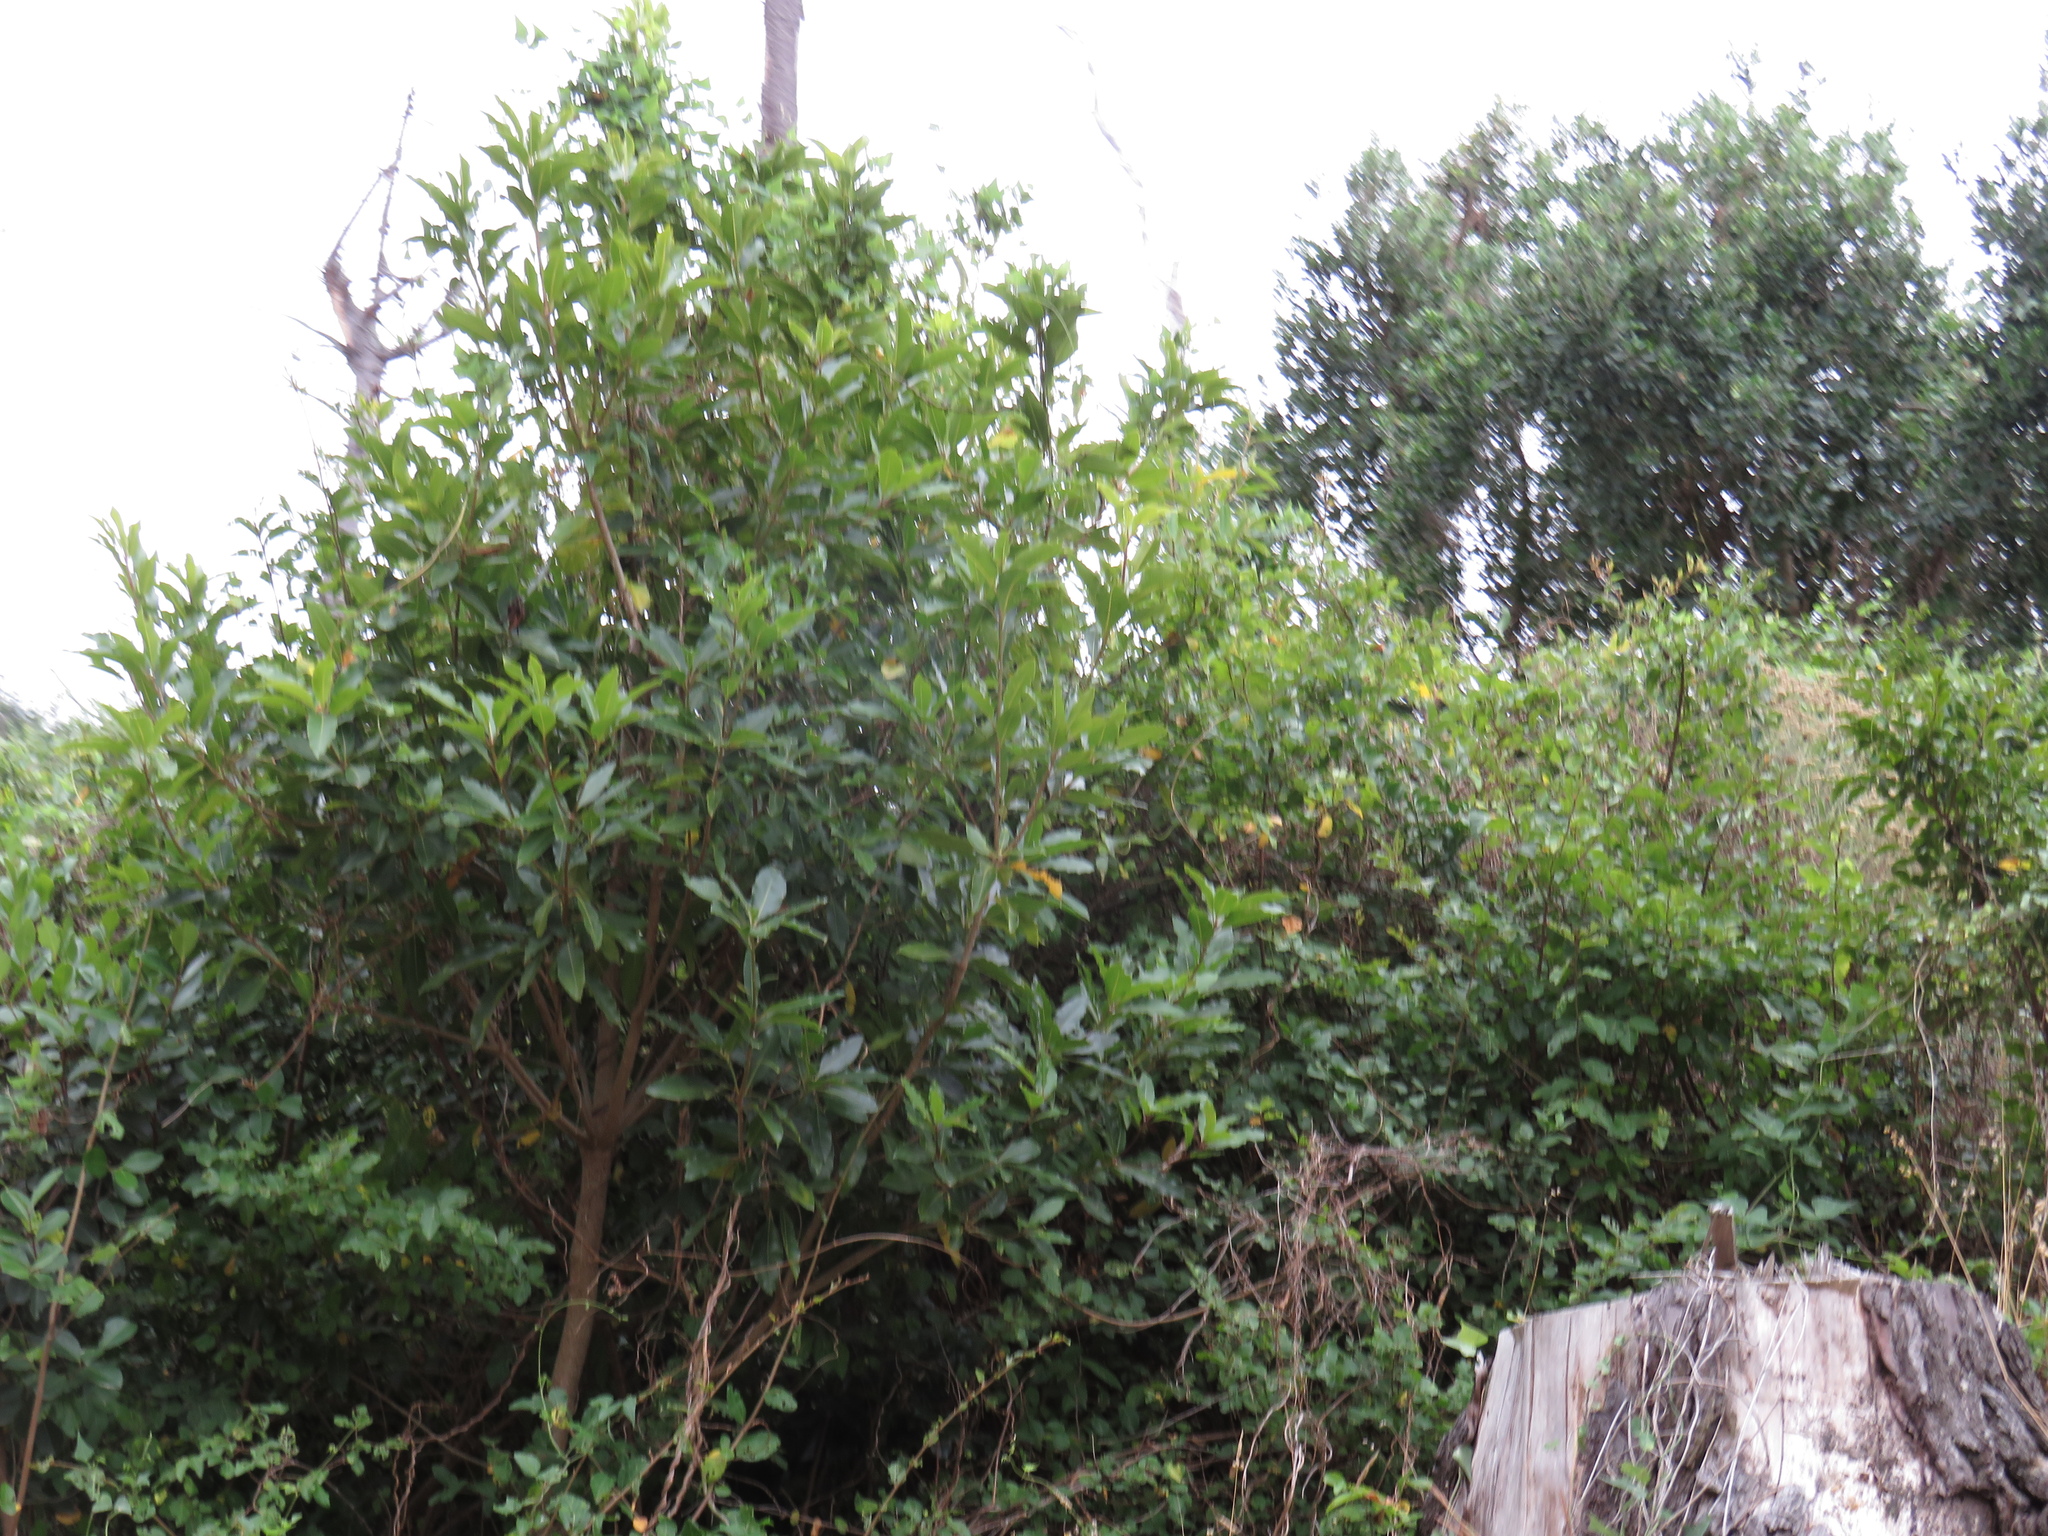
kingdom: Plantae
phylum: Tracheophyta
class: Magnoliopsida
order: Apiales
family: Pittosporaceae
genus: Pittosporum
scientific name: Pittosporum undulatum
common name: Australian cheesewood
